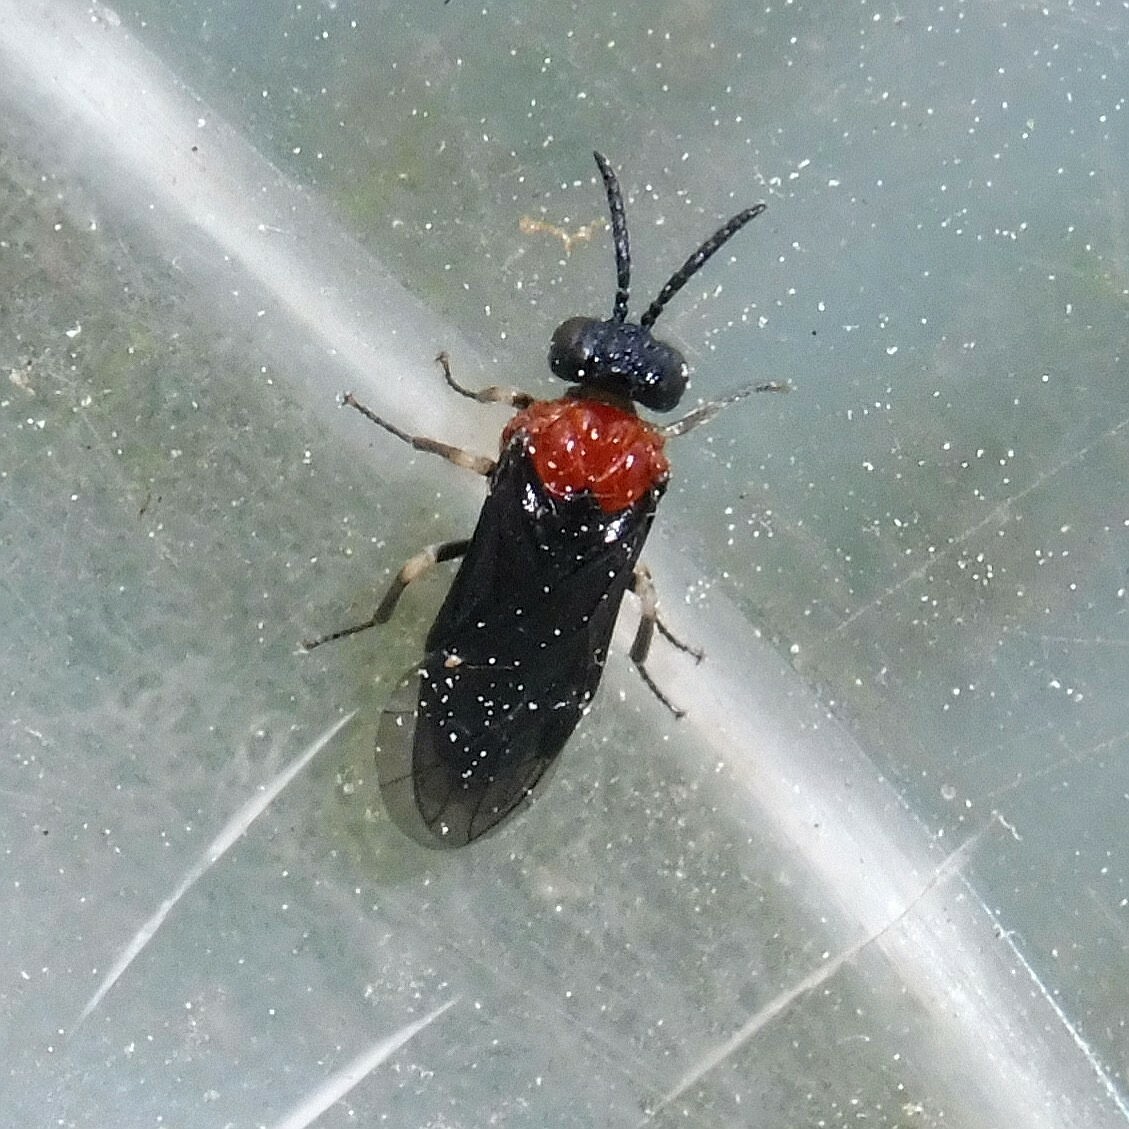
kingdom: Animalia
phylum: Arthropoda
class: Insecta
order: Hymenoptera
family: Tenthredinidae
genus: Eutomostethus
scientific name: Eutomostethus ephippium
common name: Tenthredid wasp
